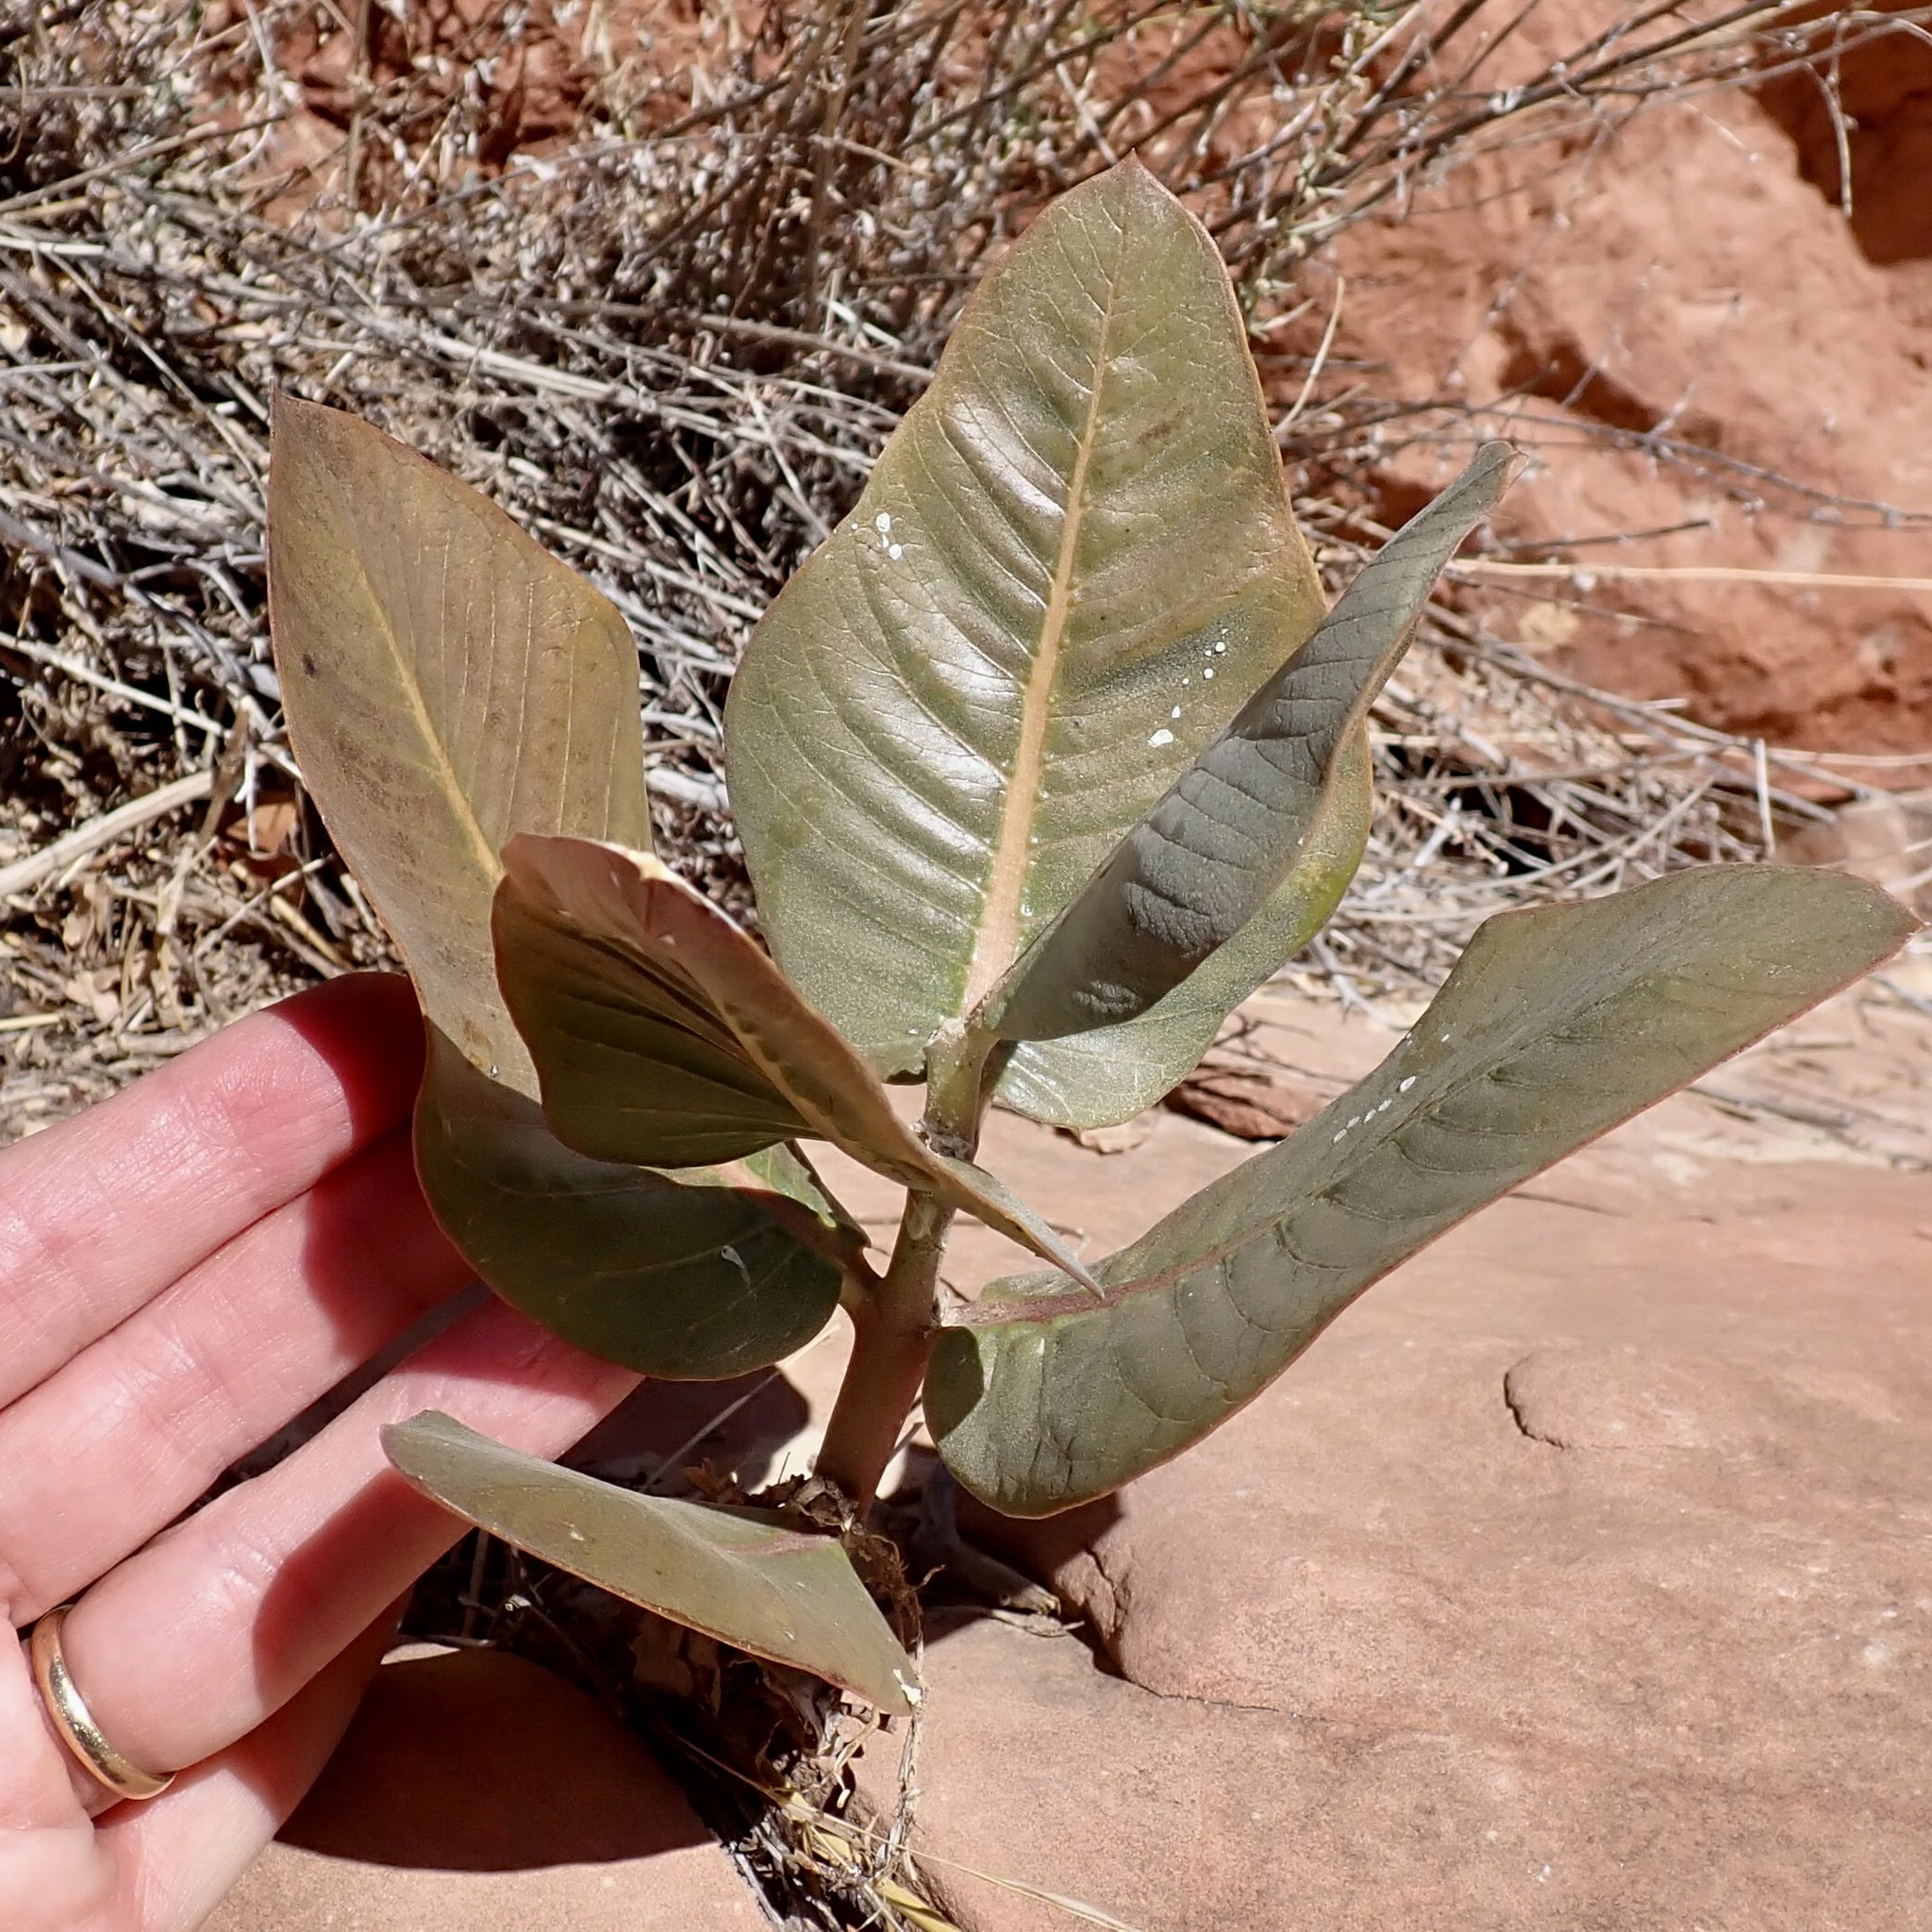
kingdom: Plantae
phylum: Tracheophyta
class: Magnoliopsida
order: Gentianales
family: Apocynaceae
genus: Asclepias
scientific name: Asclepias latifolia
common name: Broadleaf milkweed
